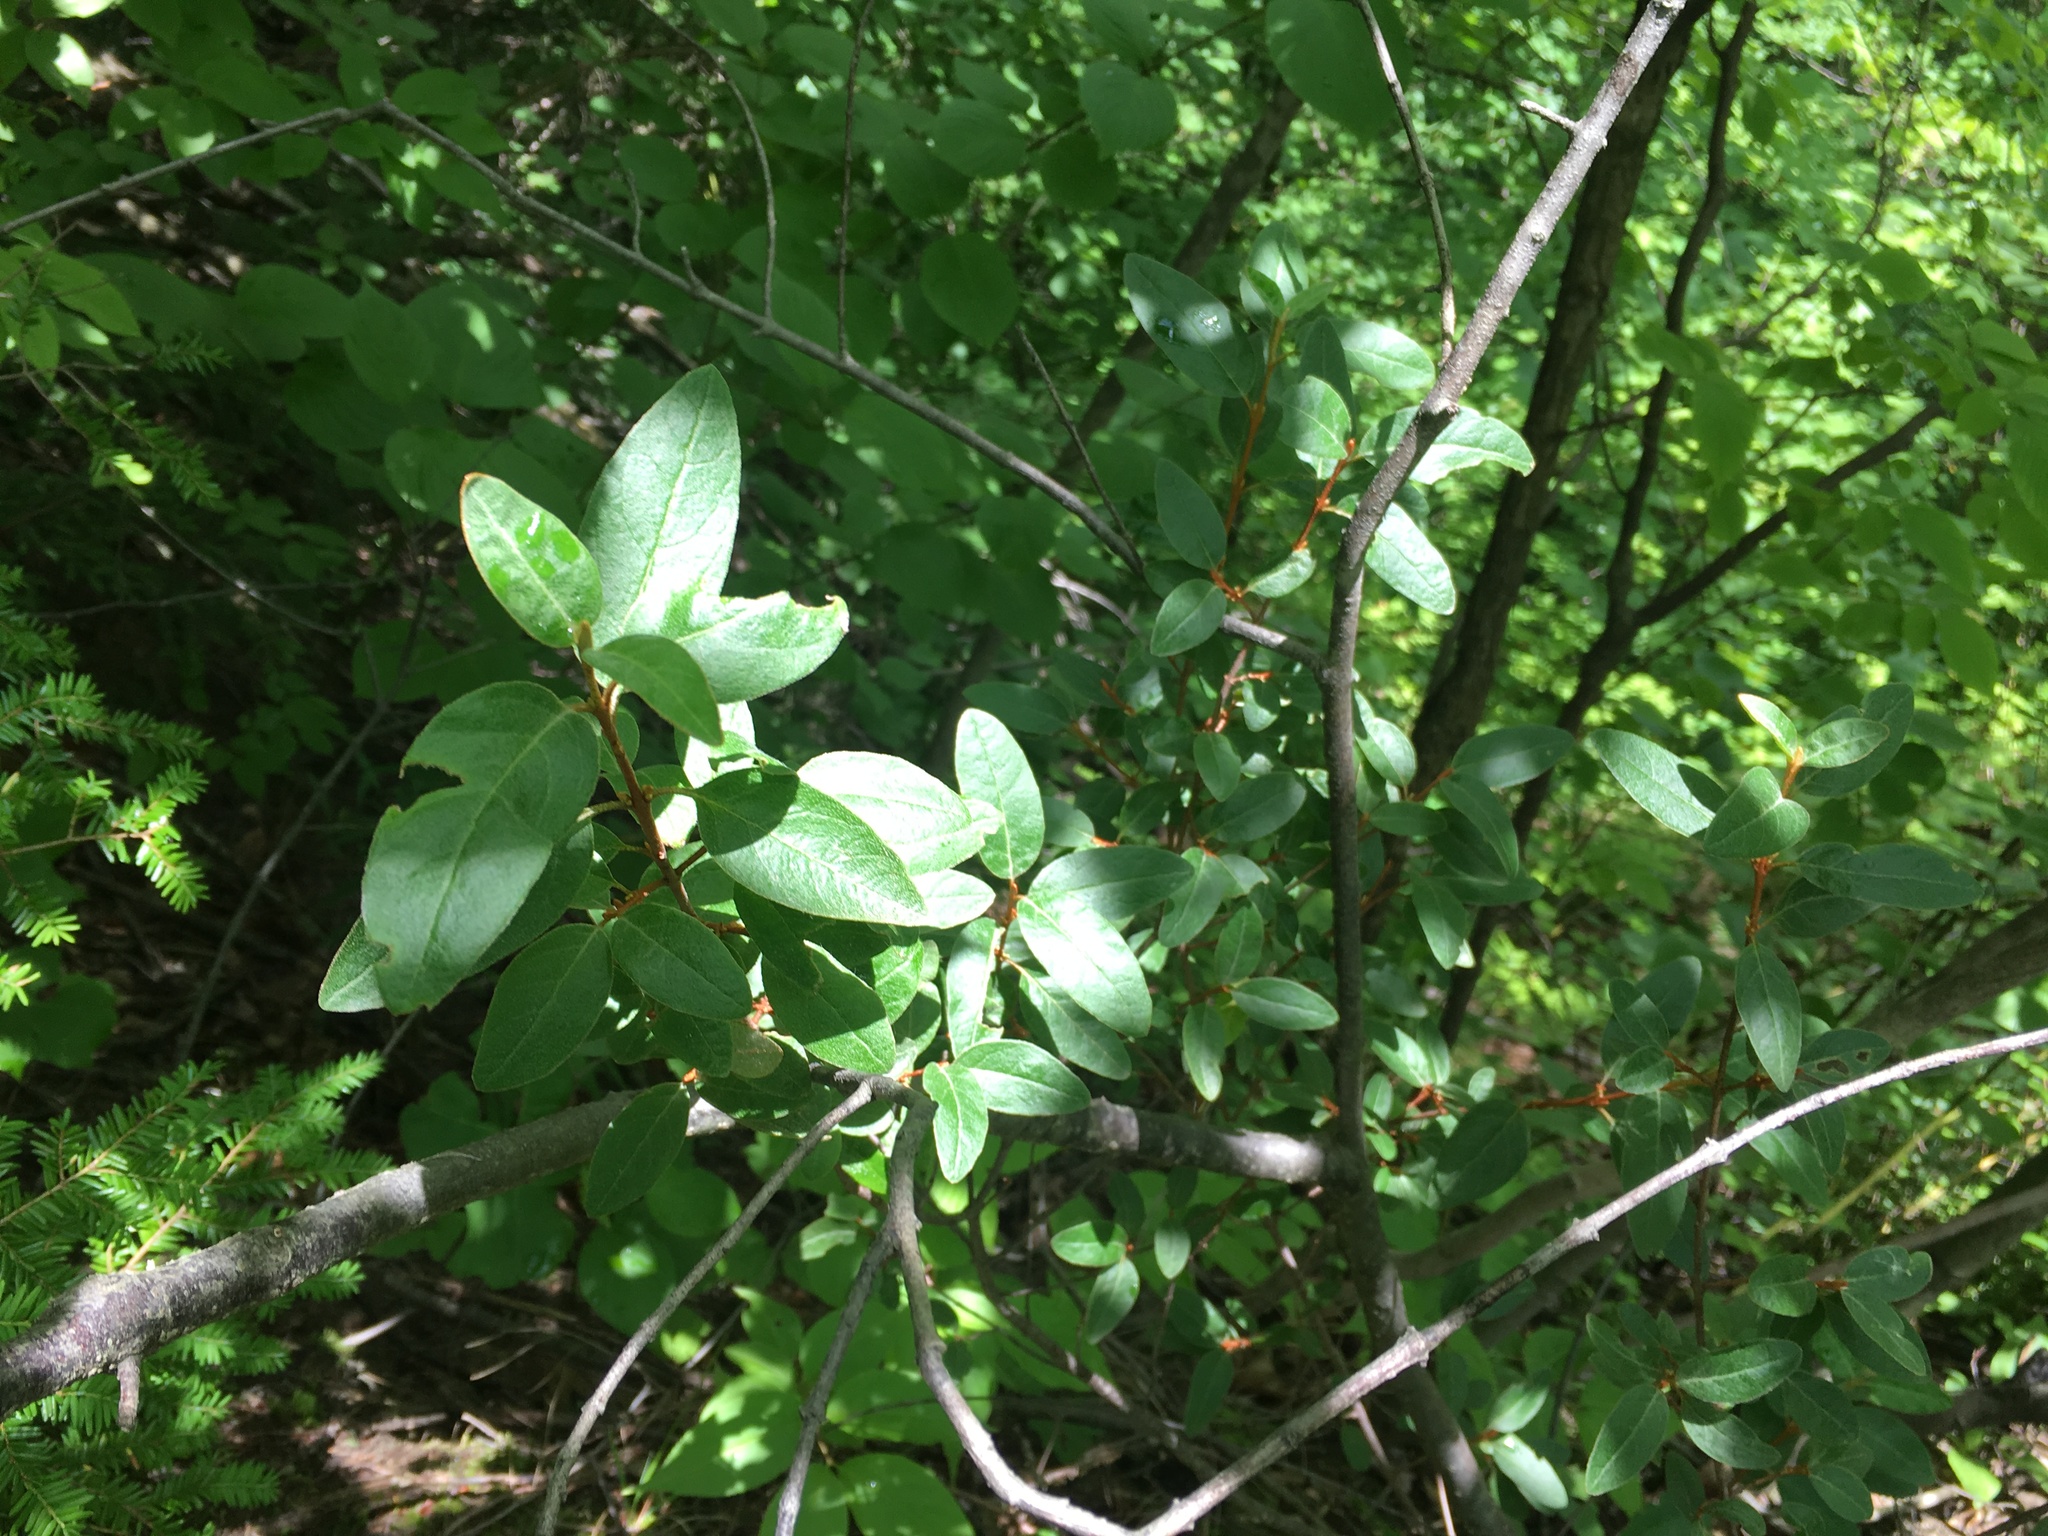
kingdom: Plantae
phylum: Tracheophyta
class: Magnoliopsida
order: Rosales
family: Elaeagnaceae
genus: Shepherdia
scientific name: Shepherdia canadensis
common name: Soapberry
